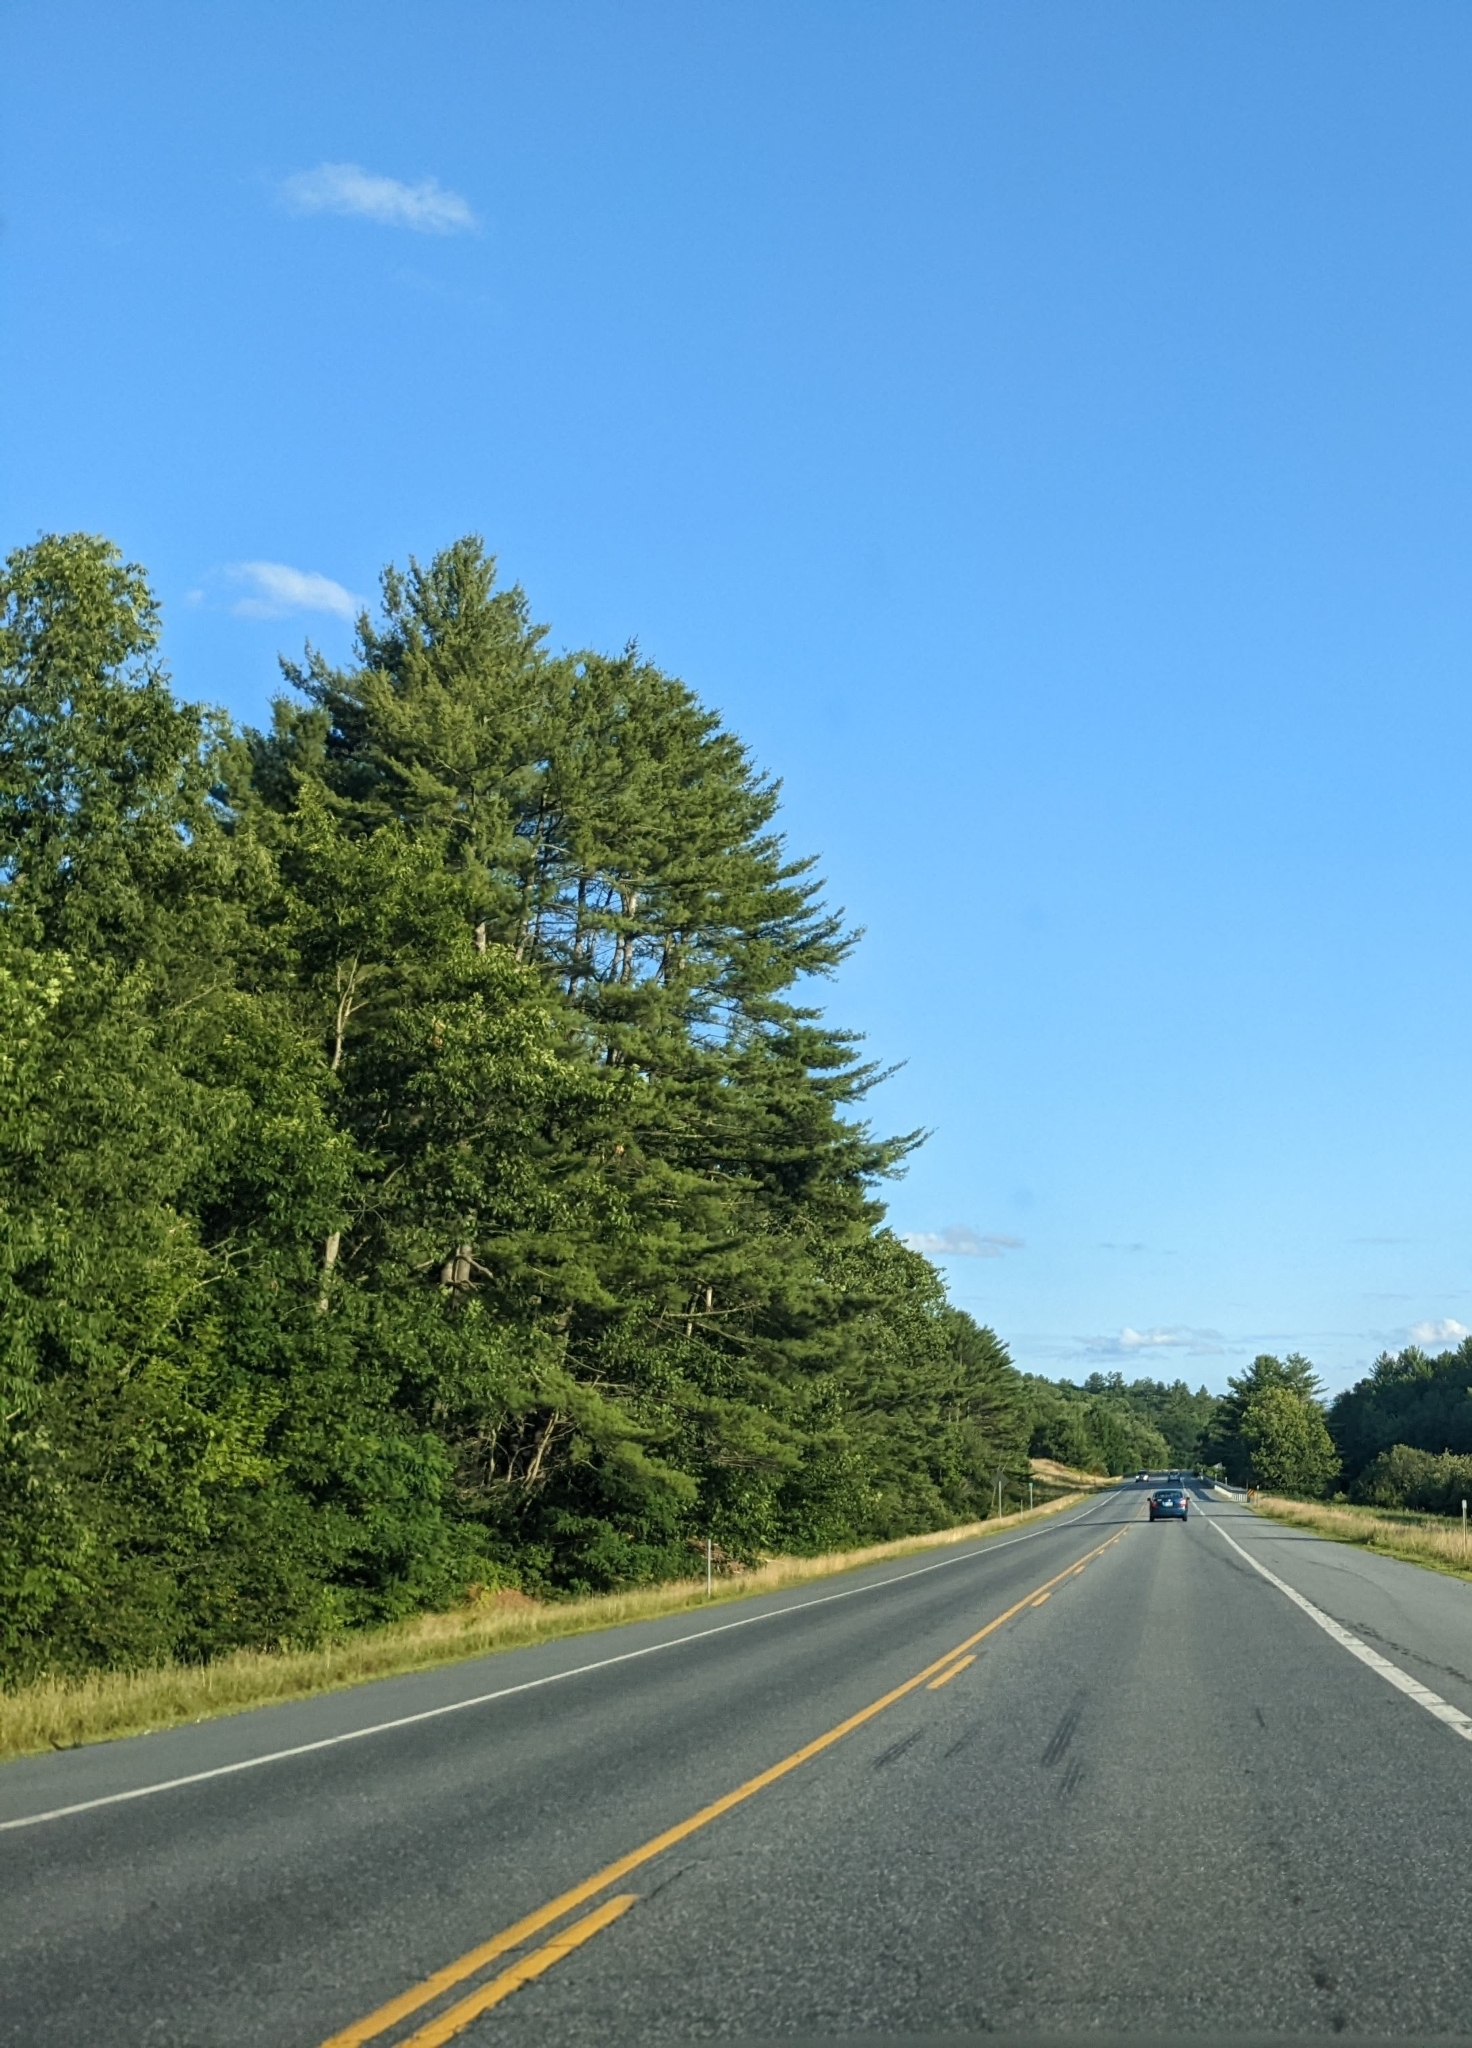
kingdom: Plantae
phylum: Tracheophyta
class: Pinopsida
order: Pinales
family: Pinaceae
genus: Pinus
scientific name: Pinus strobus
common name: Weymouth pine
